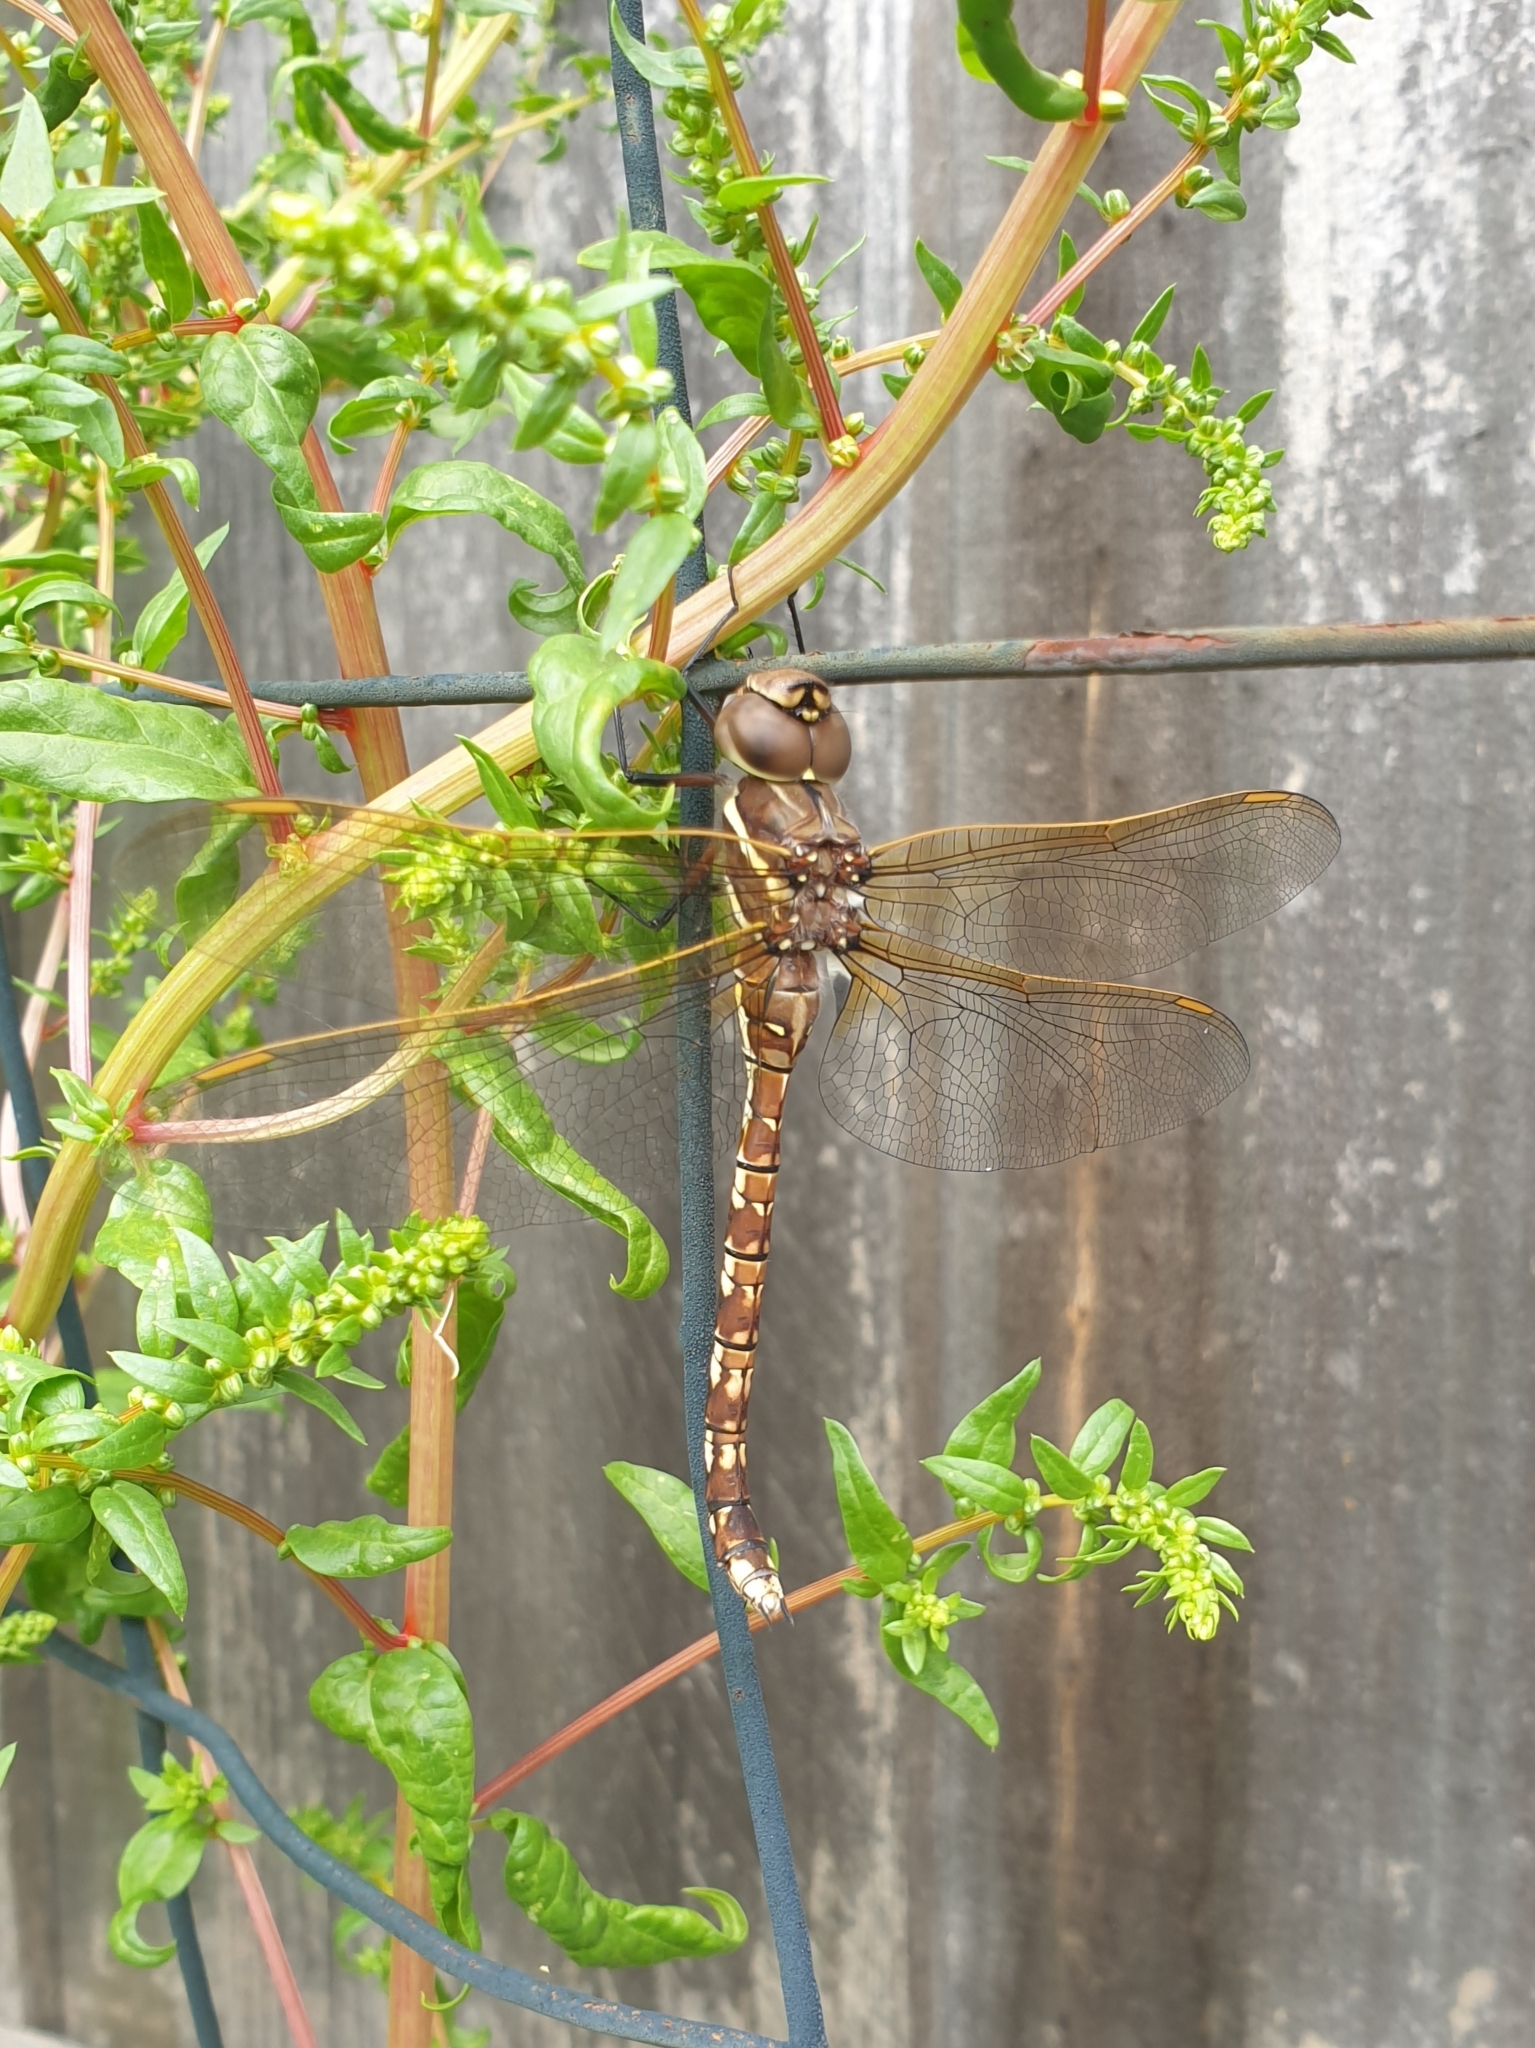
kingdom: Animalia
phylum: Arthropoda
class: Insecta
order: Odonata
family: Aeshnidae
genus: Aeshna
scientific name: Aeshna brevistyla
